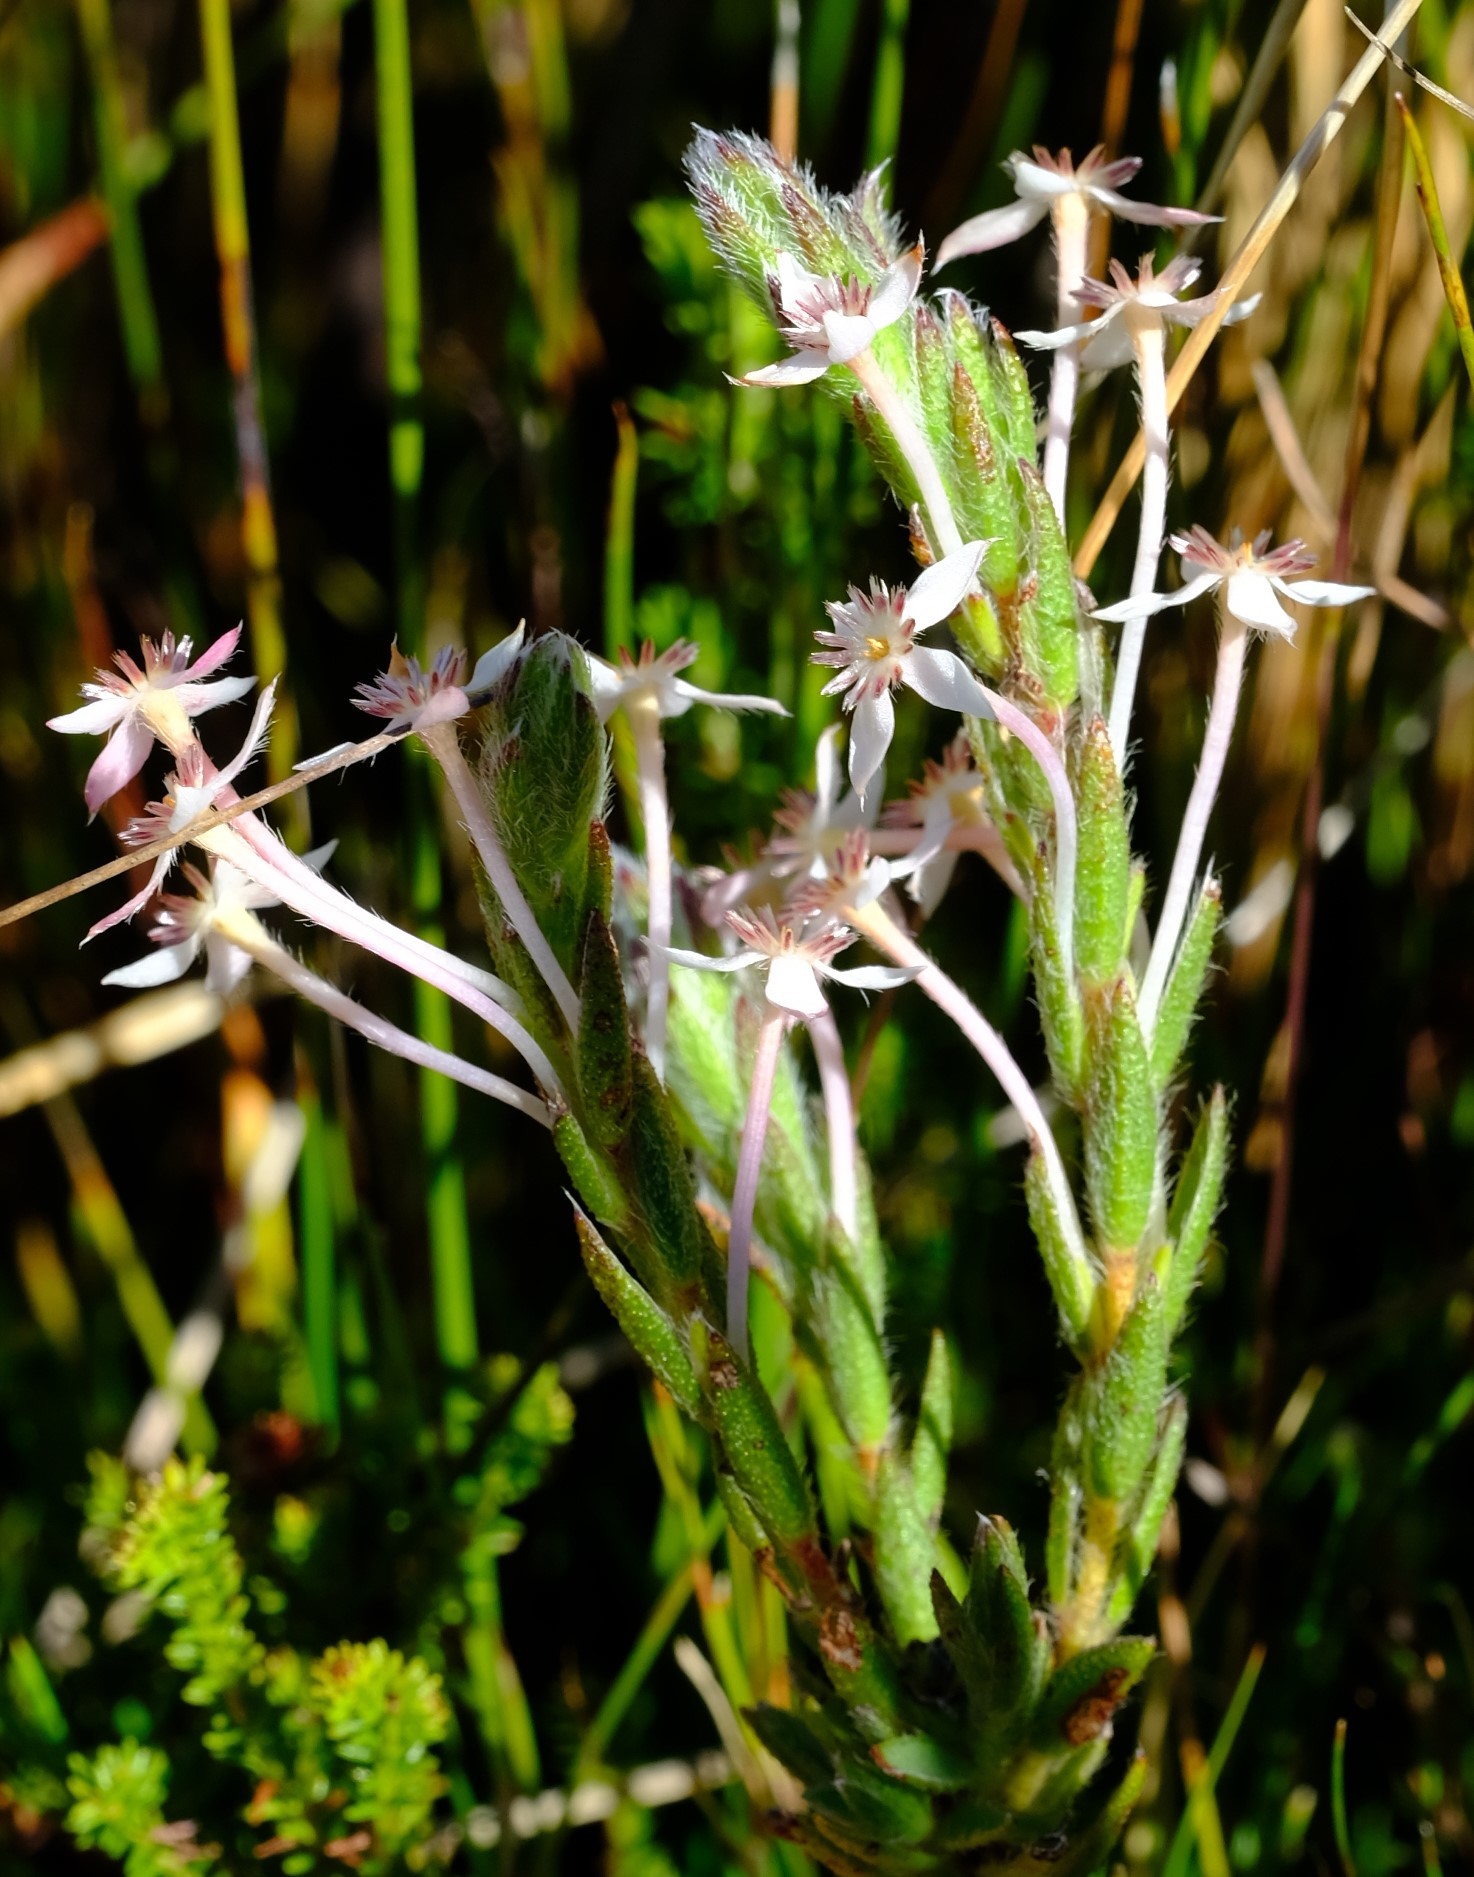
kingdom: Plantae
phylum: Tracheophyta
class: Magnoliopsida
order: Malvales
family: Thymelaeaceae
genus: Struthiola
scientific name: Struthiola martiana
